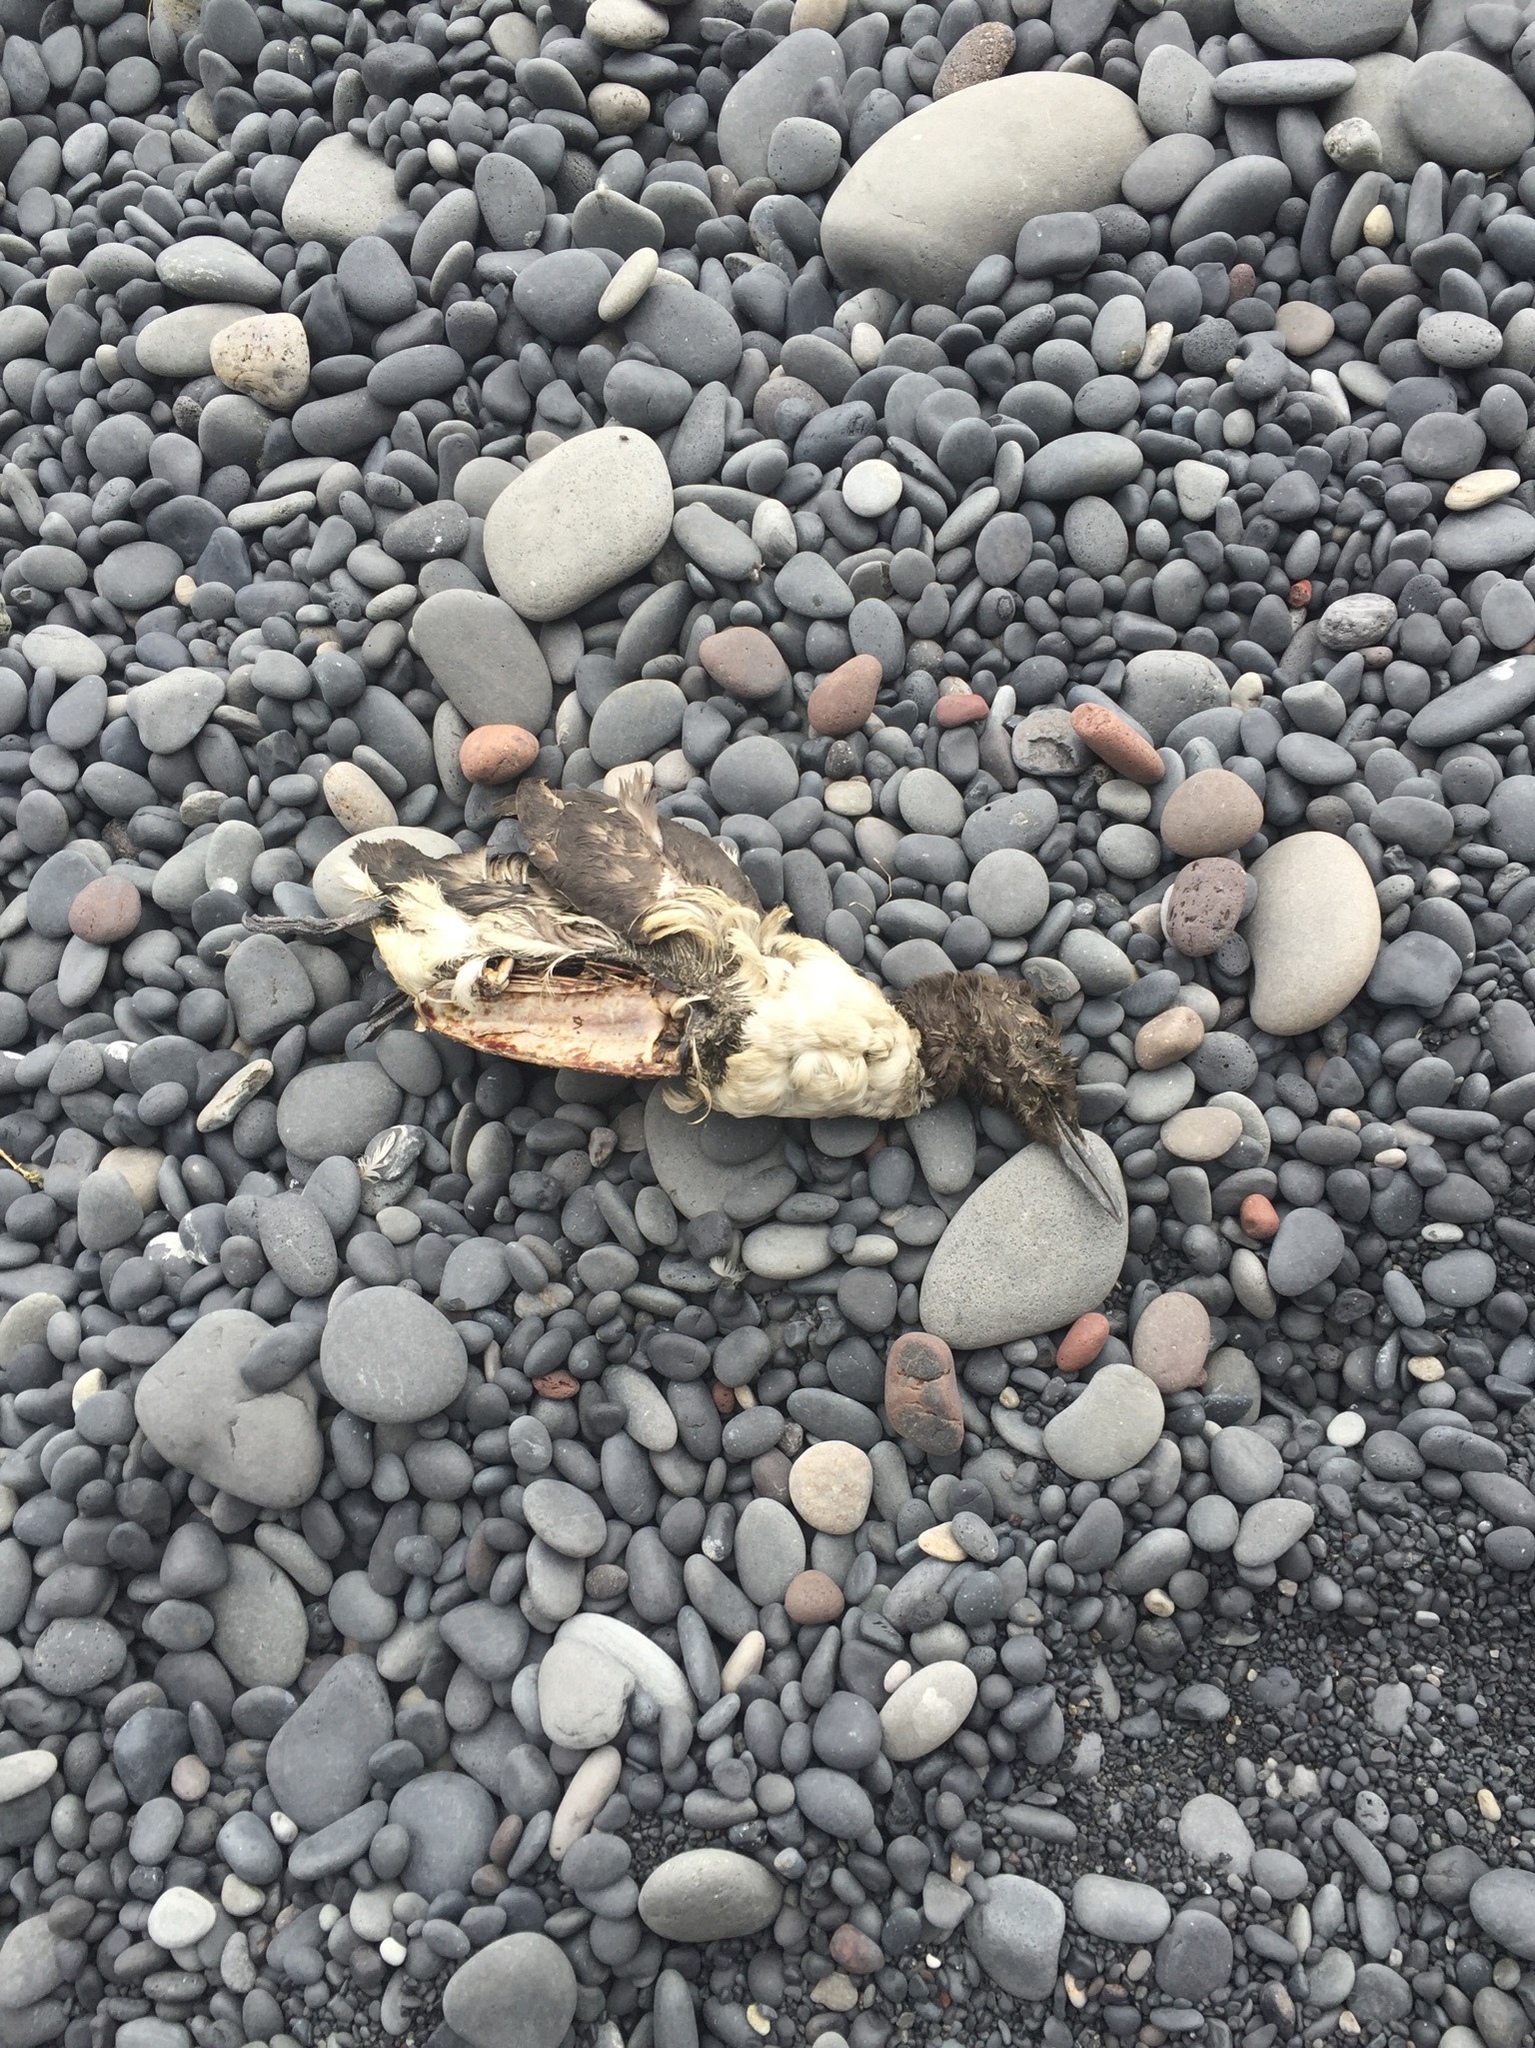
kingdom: Animalia
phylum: Chordata
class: Aves
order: Charadriiformes
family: Alcidae
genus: Uria
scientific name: Uria aalge
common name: Common murre
